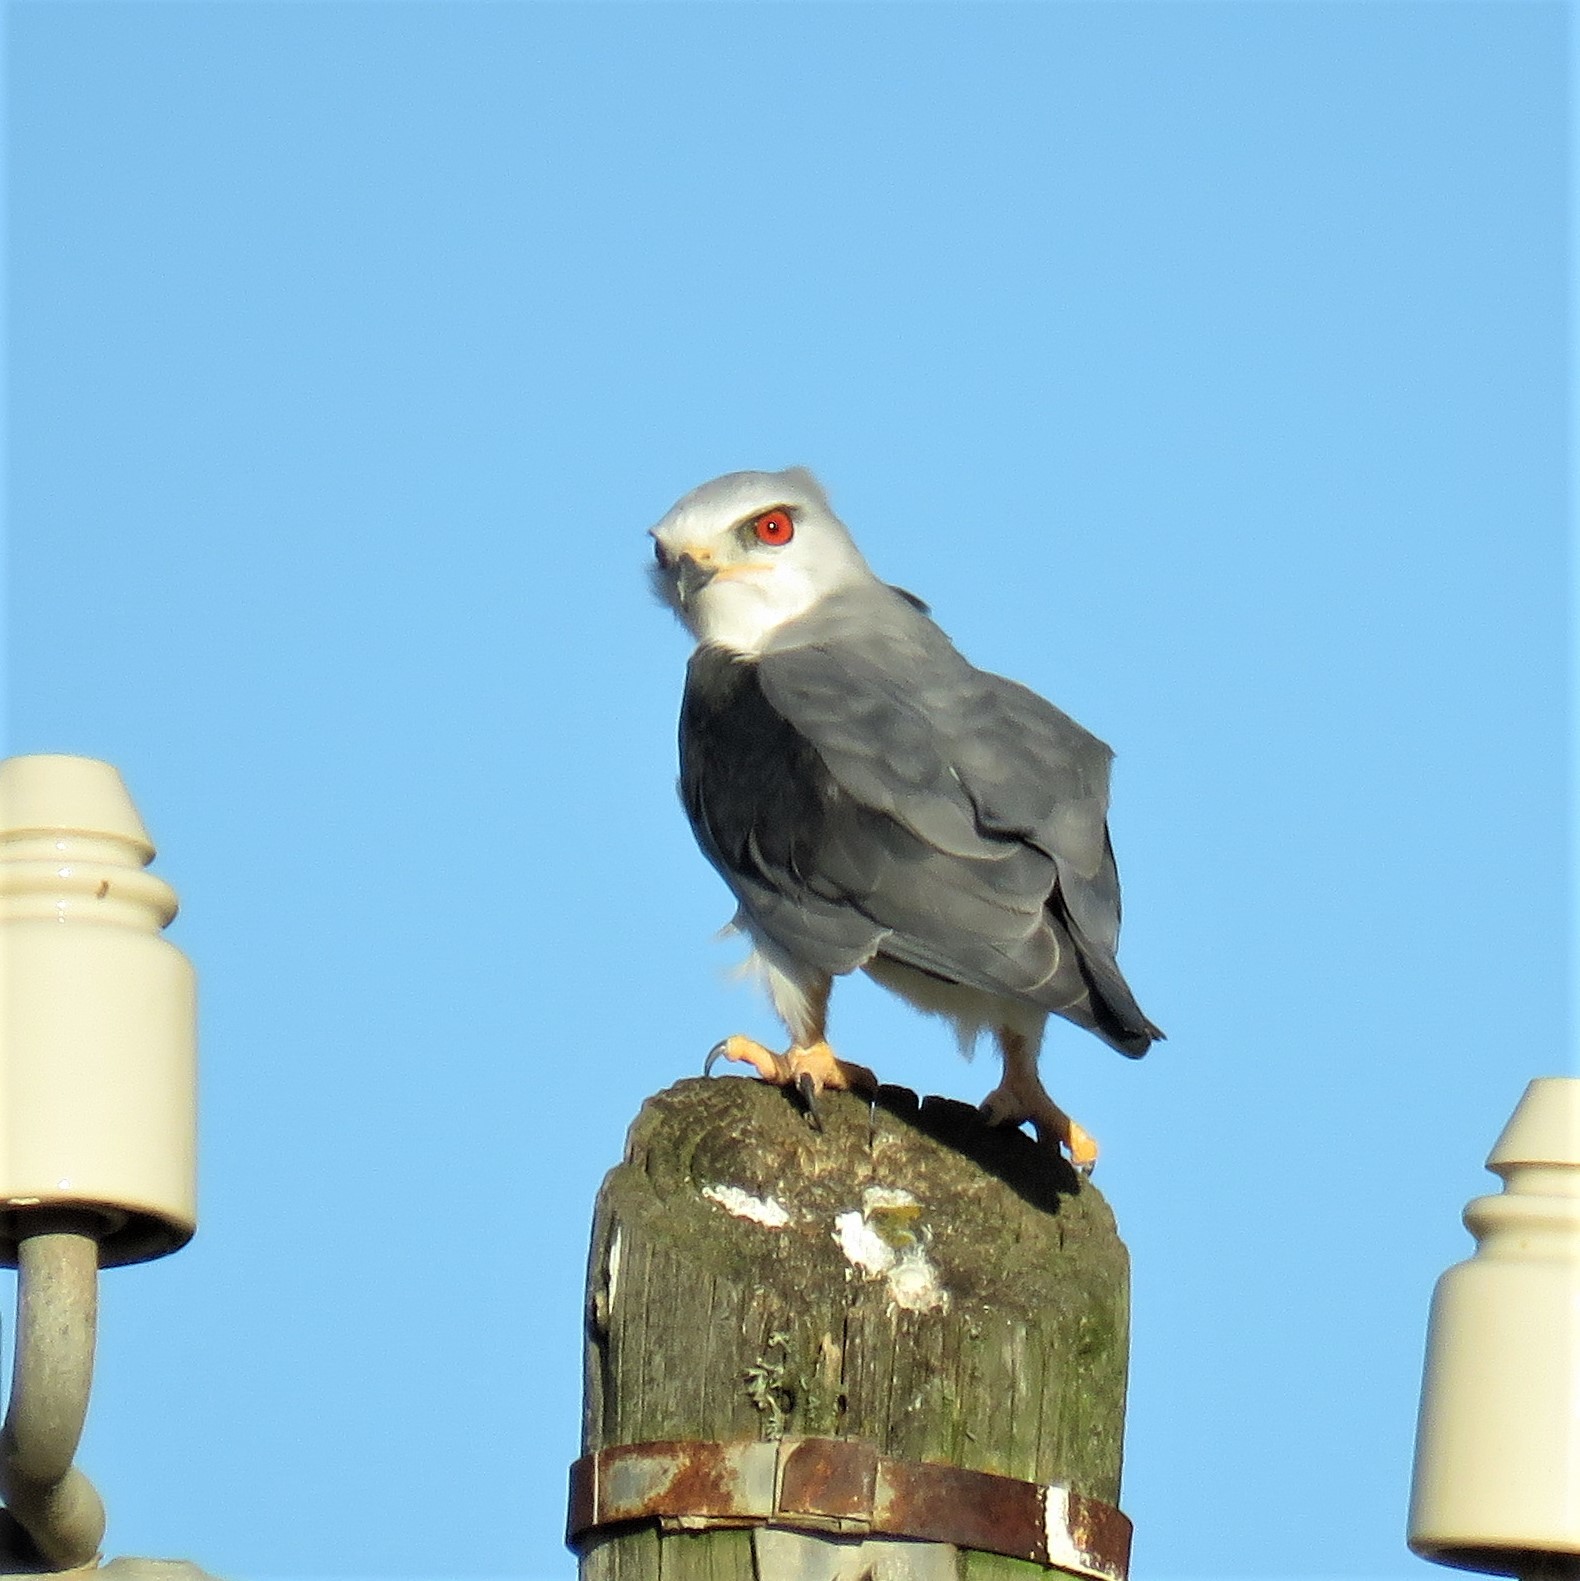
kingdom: Animalia
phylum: Chordata
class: Aves
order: Accipitriformes
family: Accipitridae
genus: Elanus
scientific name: Elanus caeruleus
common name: Black-winged kite
